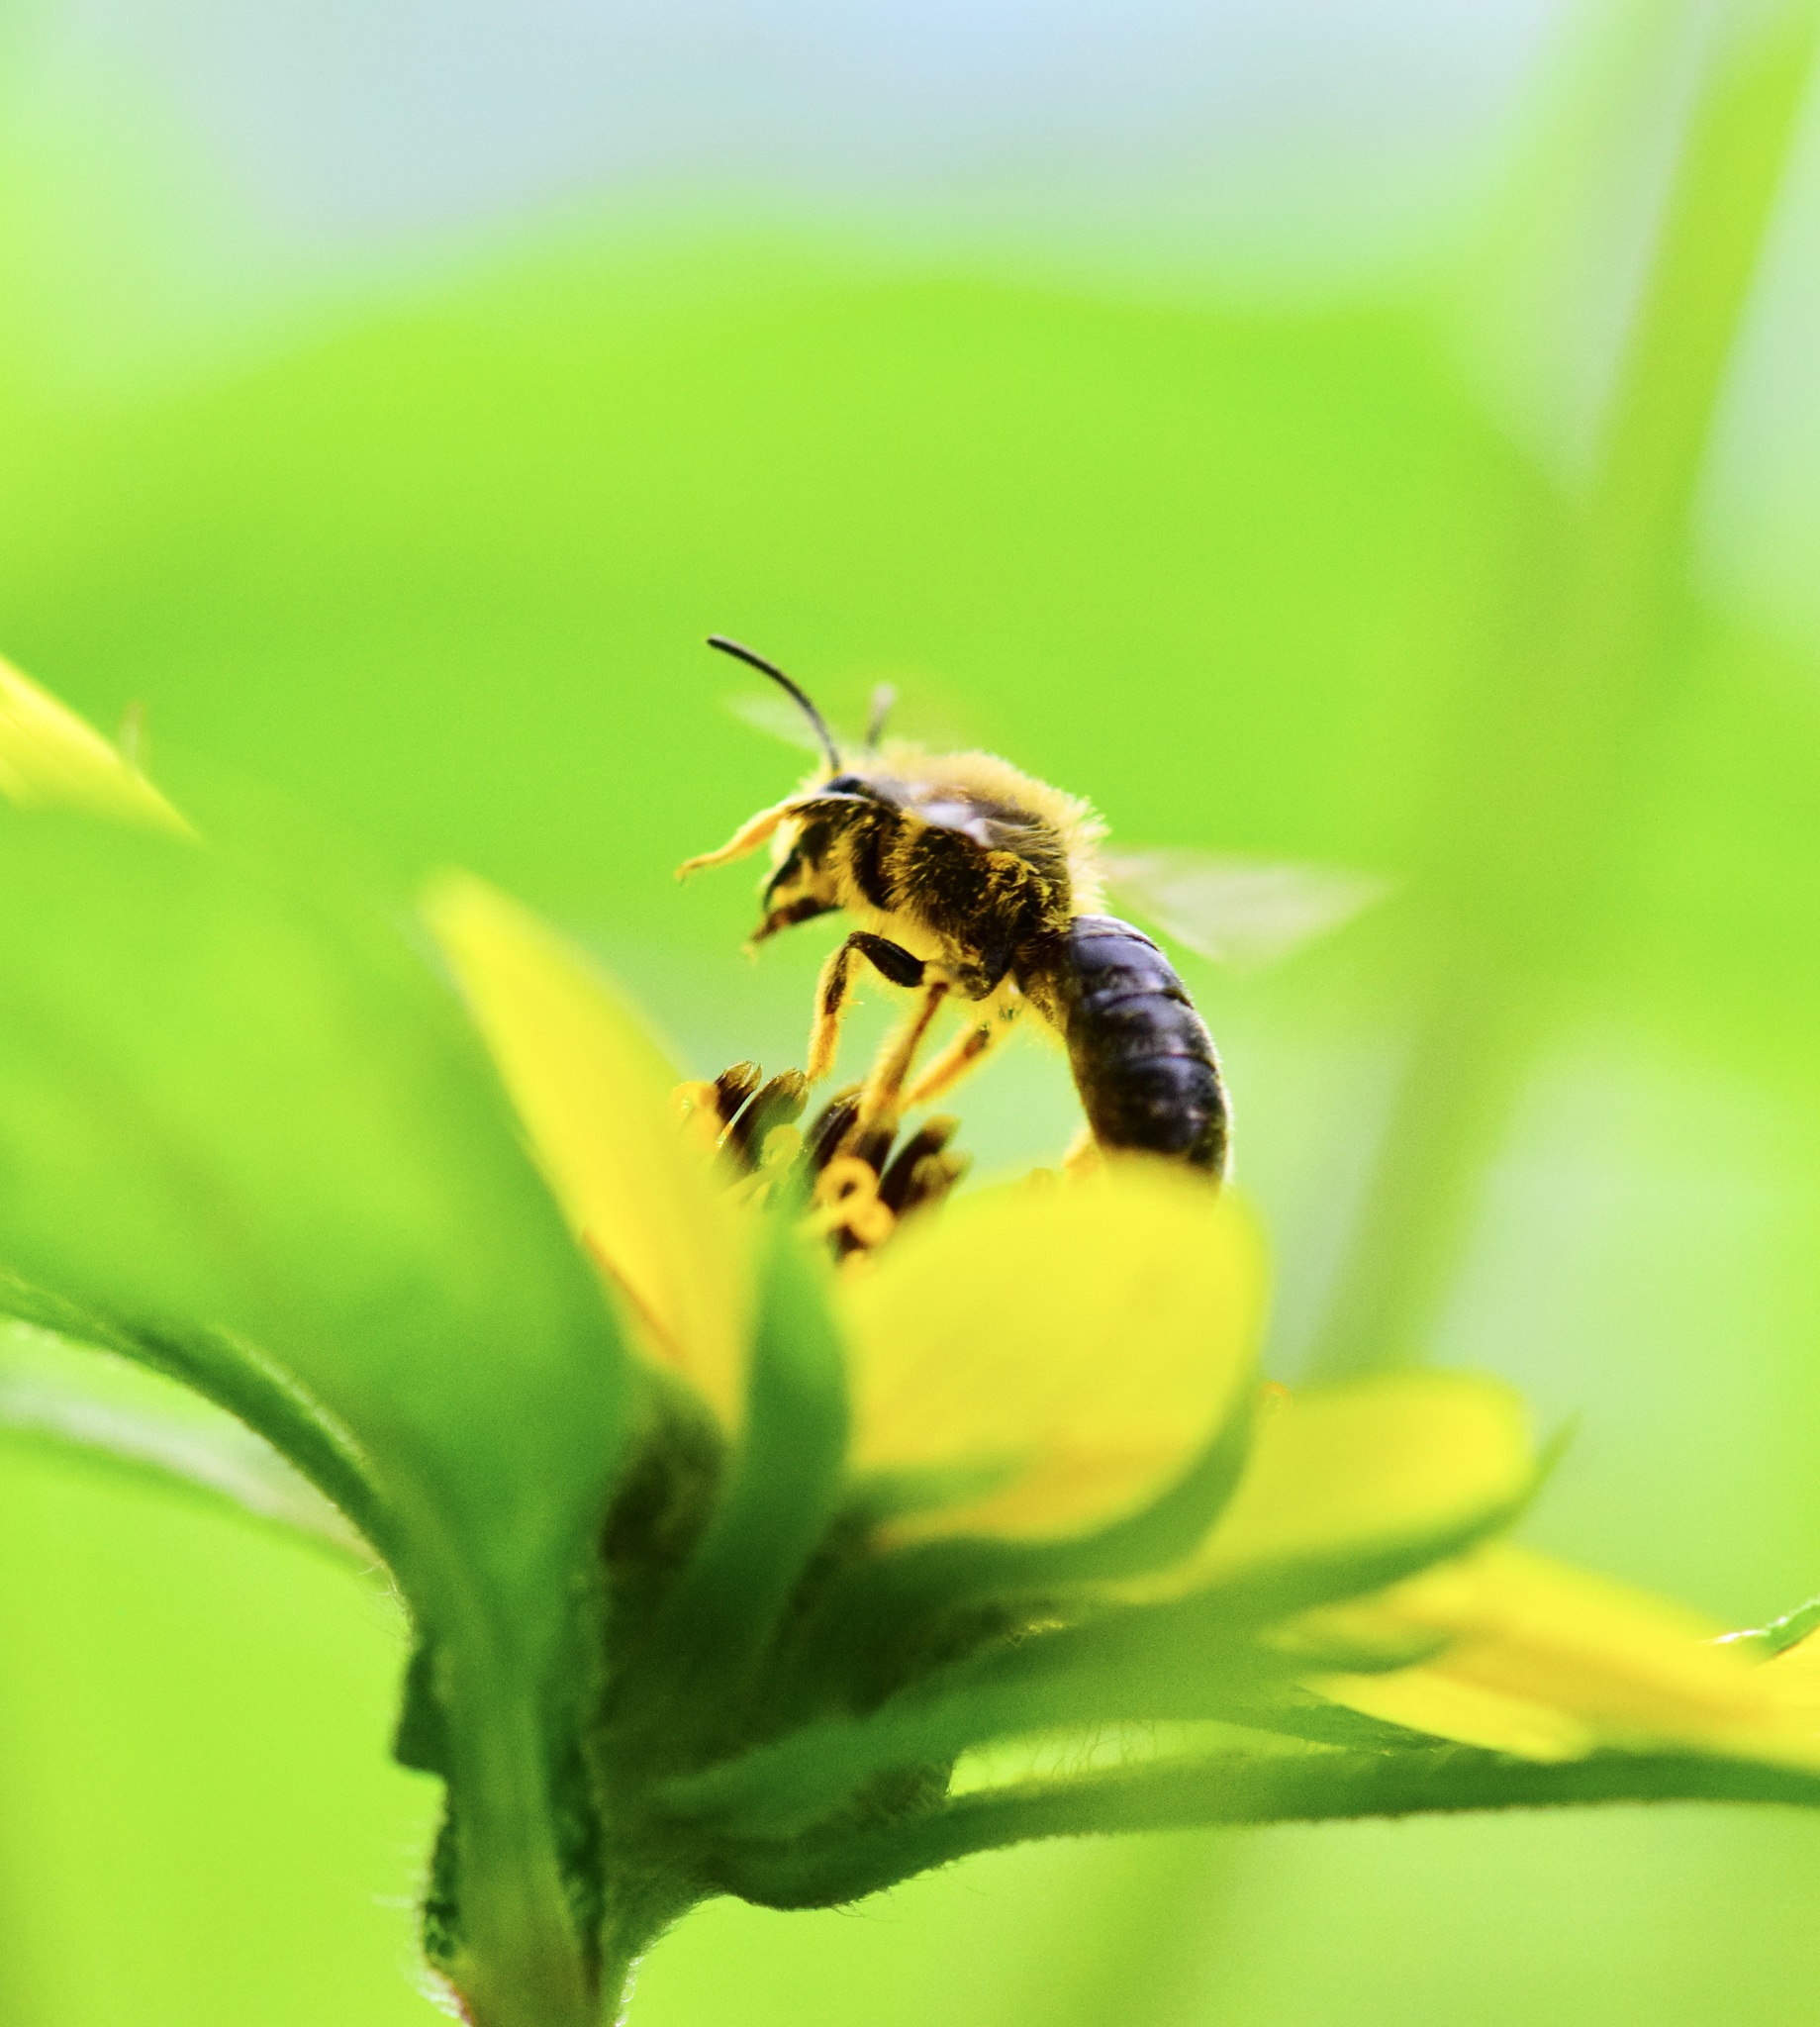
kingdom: Animalia
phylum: Arthropoda
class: Insecta
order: Hymenoptera
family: Andrenidae
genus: Andrena
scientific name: Andrena helianthi
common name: Sunflower mining bee
